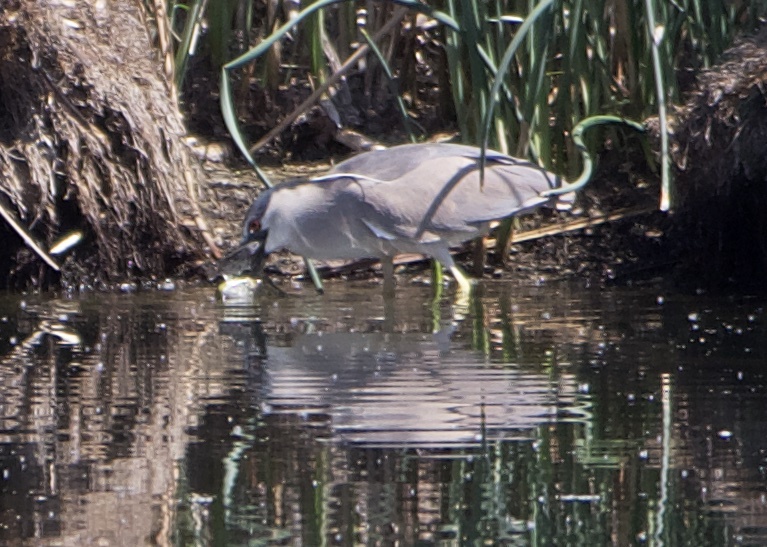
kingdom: Animalia
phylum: Chordata
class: Aves
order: Pelecaniformes
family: Ardeidae
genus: Nycticorax
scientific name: Nycticorax nycticorax
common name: Black-crowned night heron
